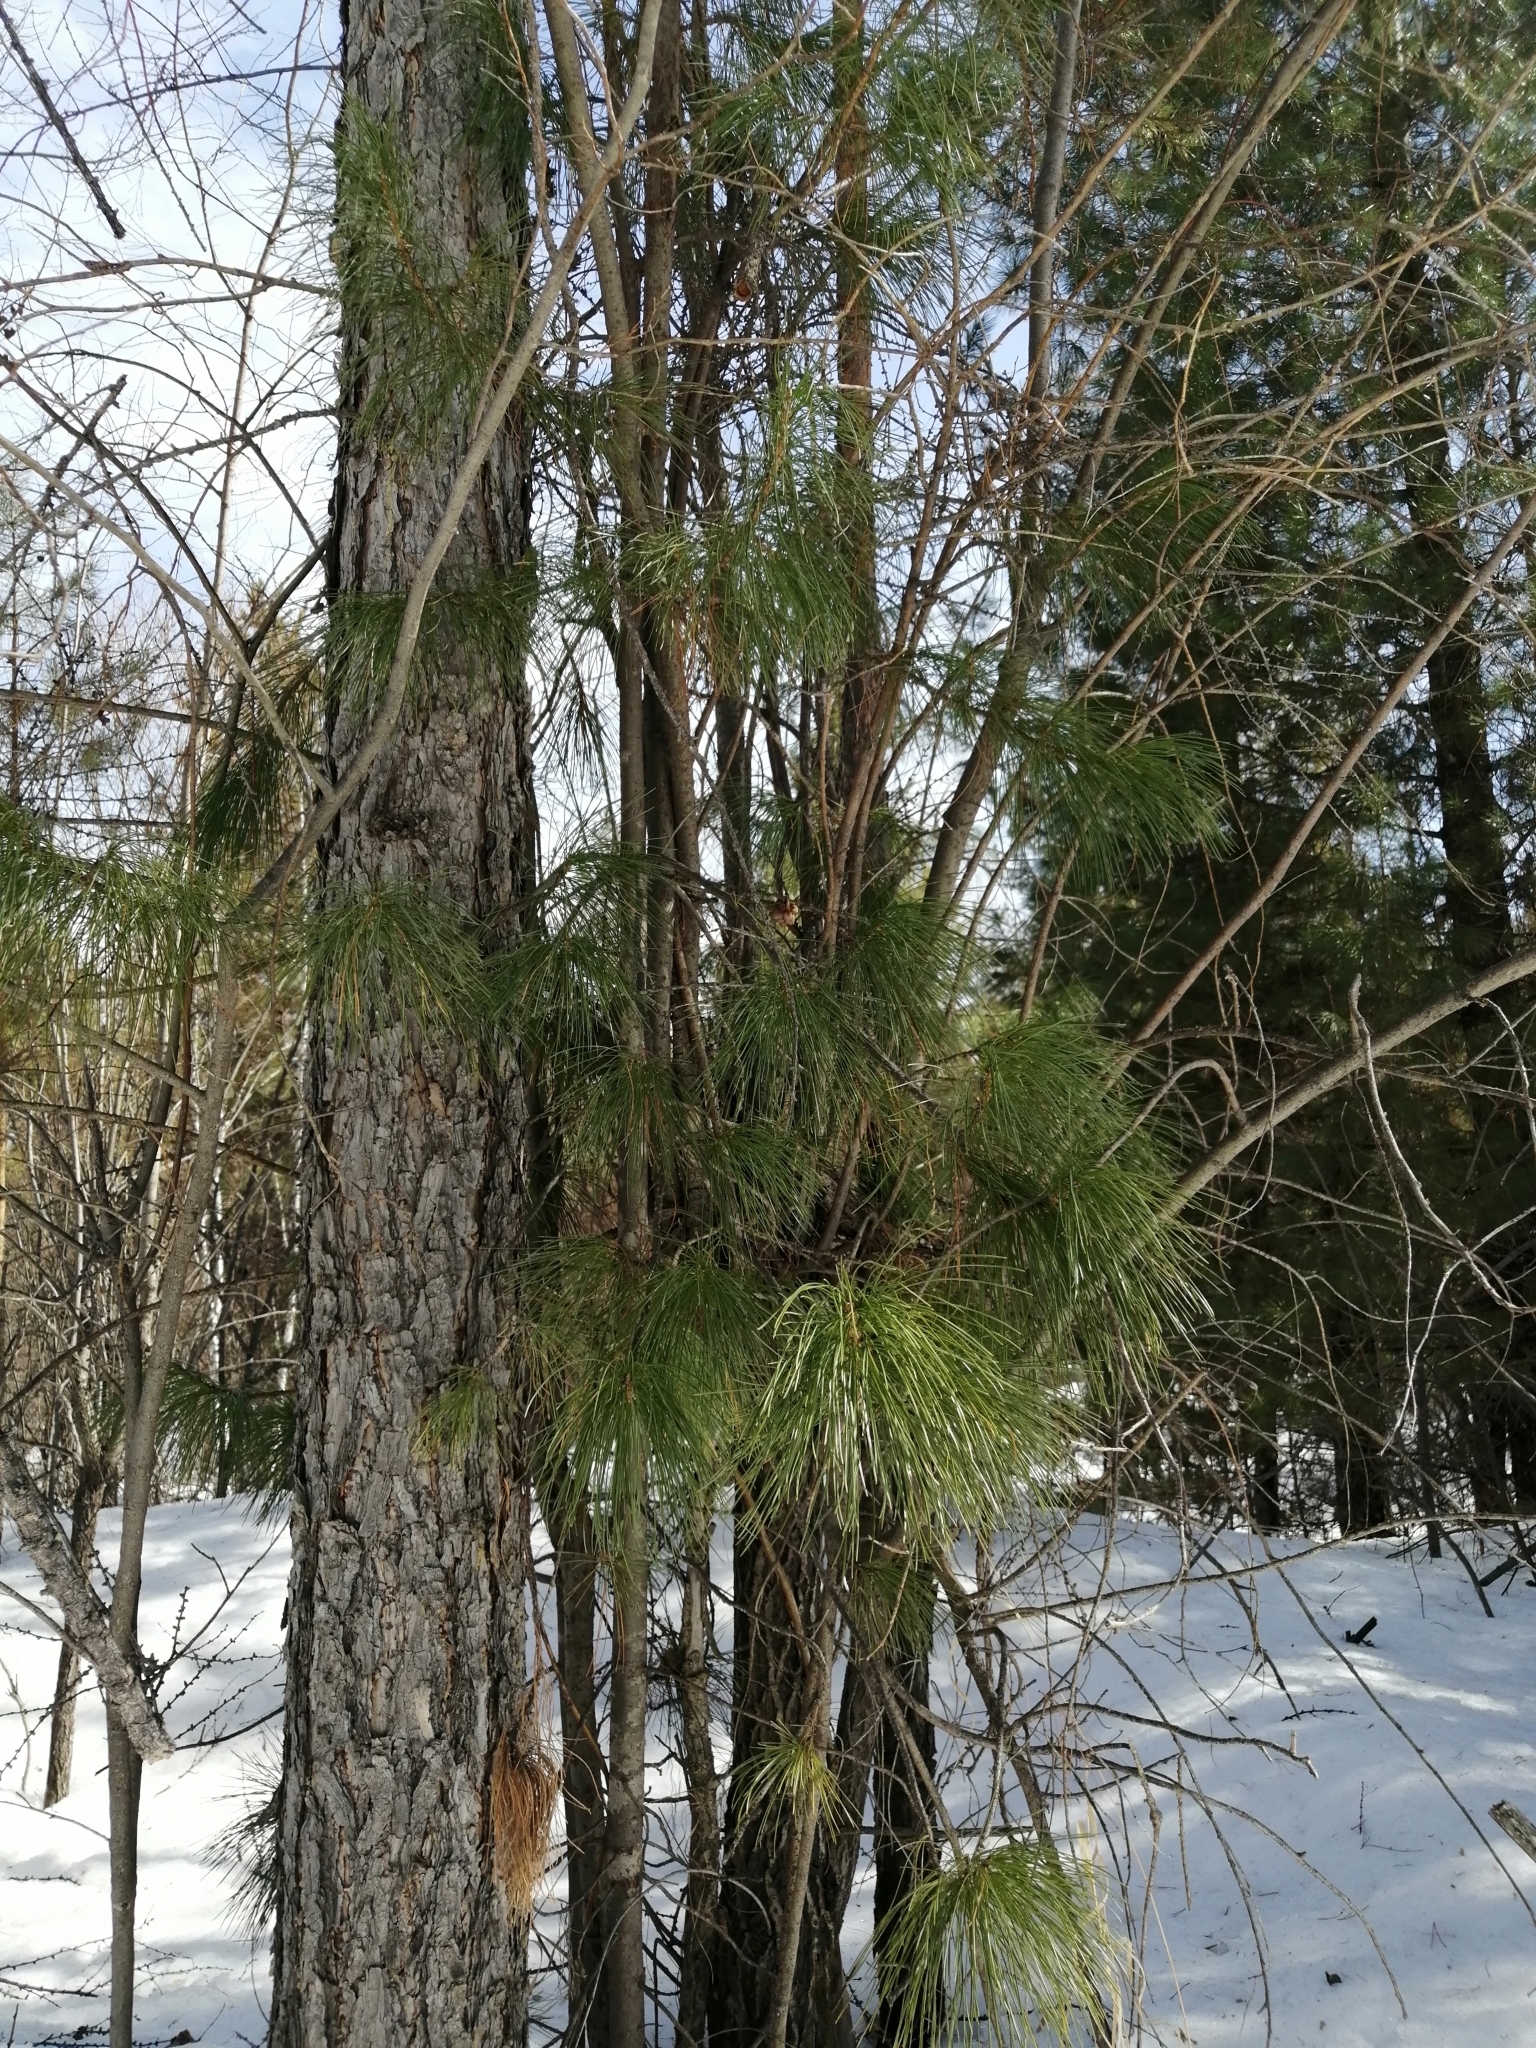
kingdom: Plantae
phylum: Tracheophyta
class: Pinopsida
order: Pinales
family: Pinaceae
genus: Pinus
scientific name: Pinus sibirica
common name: Siberian pine
